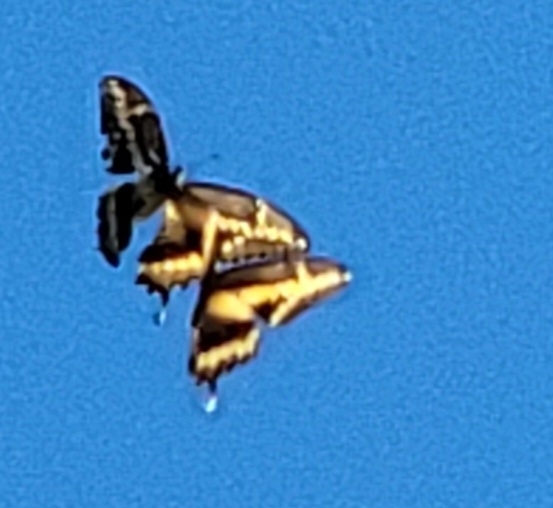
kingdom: Animalia
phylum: Arthropoda
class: Insecta
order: Lepidoptera
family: Papilionidae
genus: Papilio
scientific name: Papilio rumiko
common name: Western giant swallowtail
